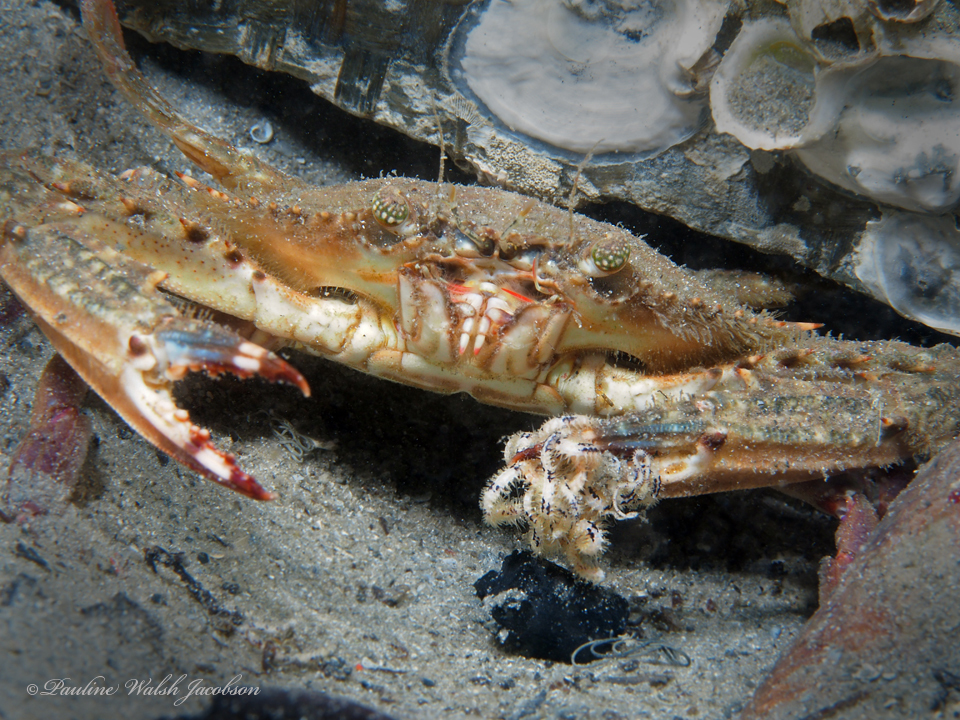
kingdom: Animalia
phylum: Arthropoda
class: Malacostraca
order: Decapoda
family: Portunidae
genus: Achelous
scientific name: Achelous spinimanus
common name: Spiny-handed portunus
